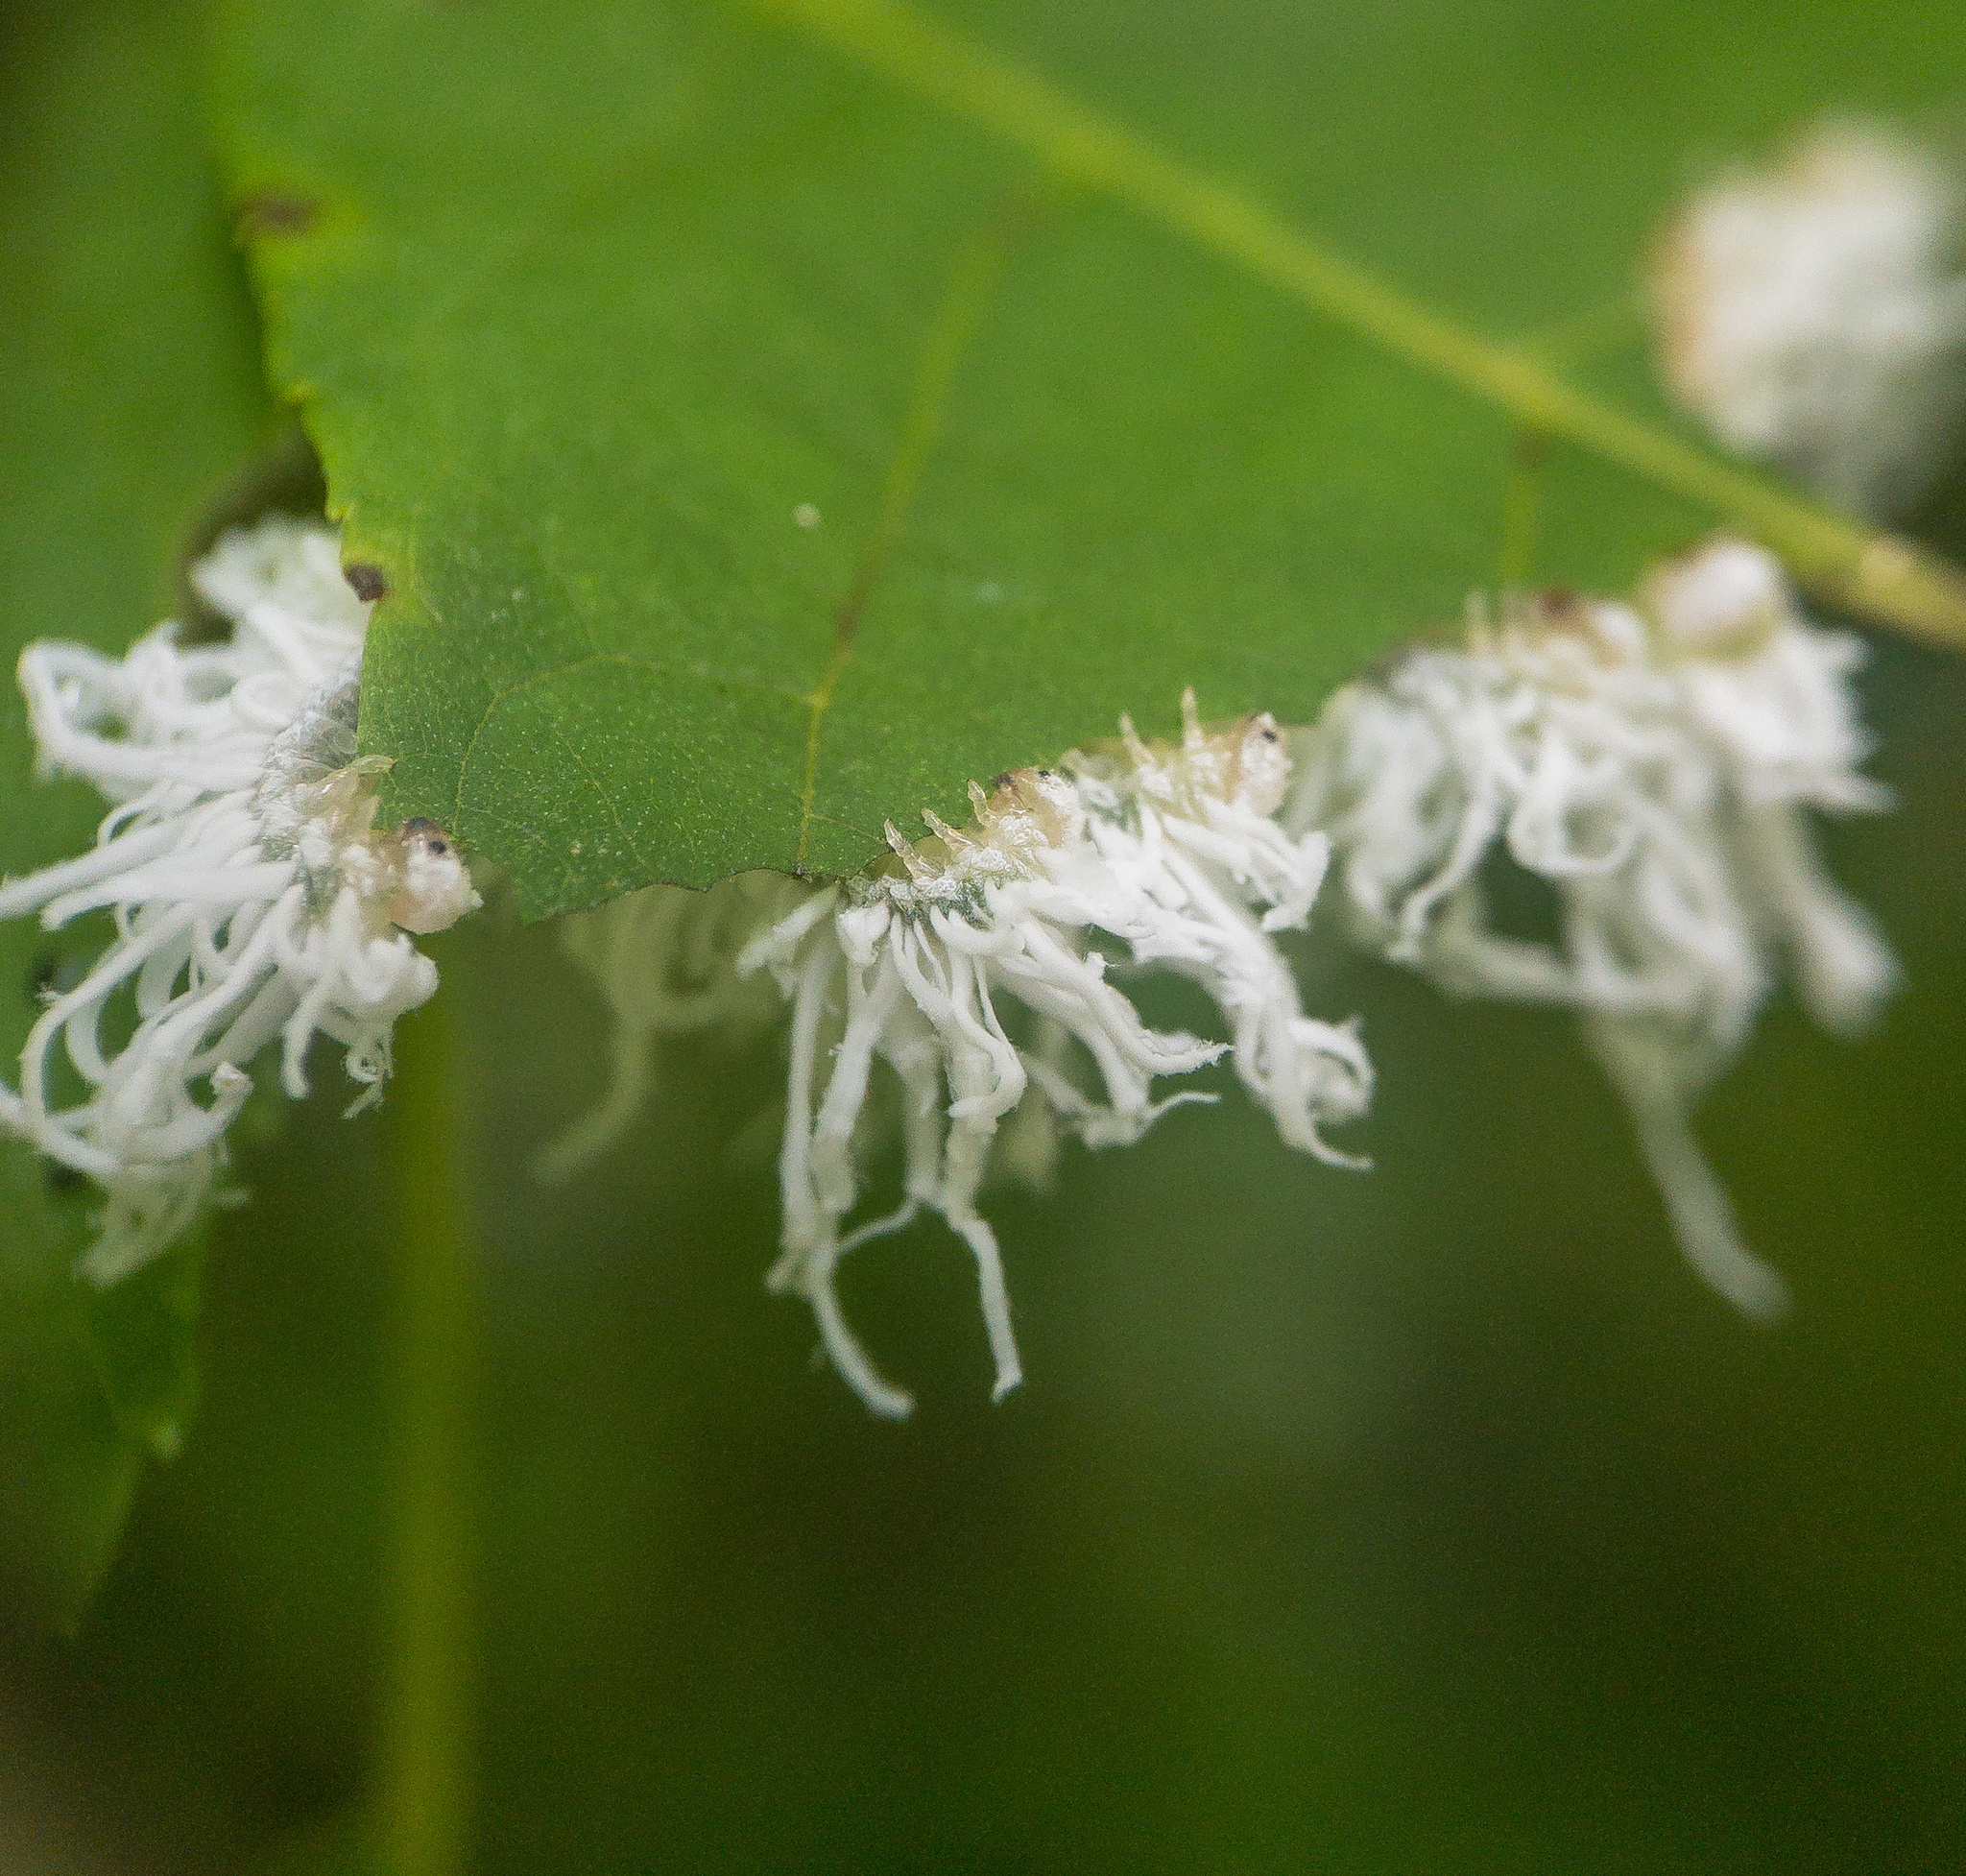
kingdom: Animalia
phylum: Arthropoda
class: Insecta
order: Hymenoptera
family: Tenthredinidae
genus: Eriocampa
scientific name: Eriocampa juglandis
